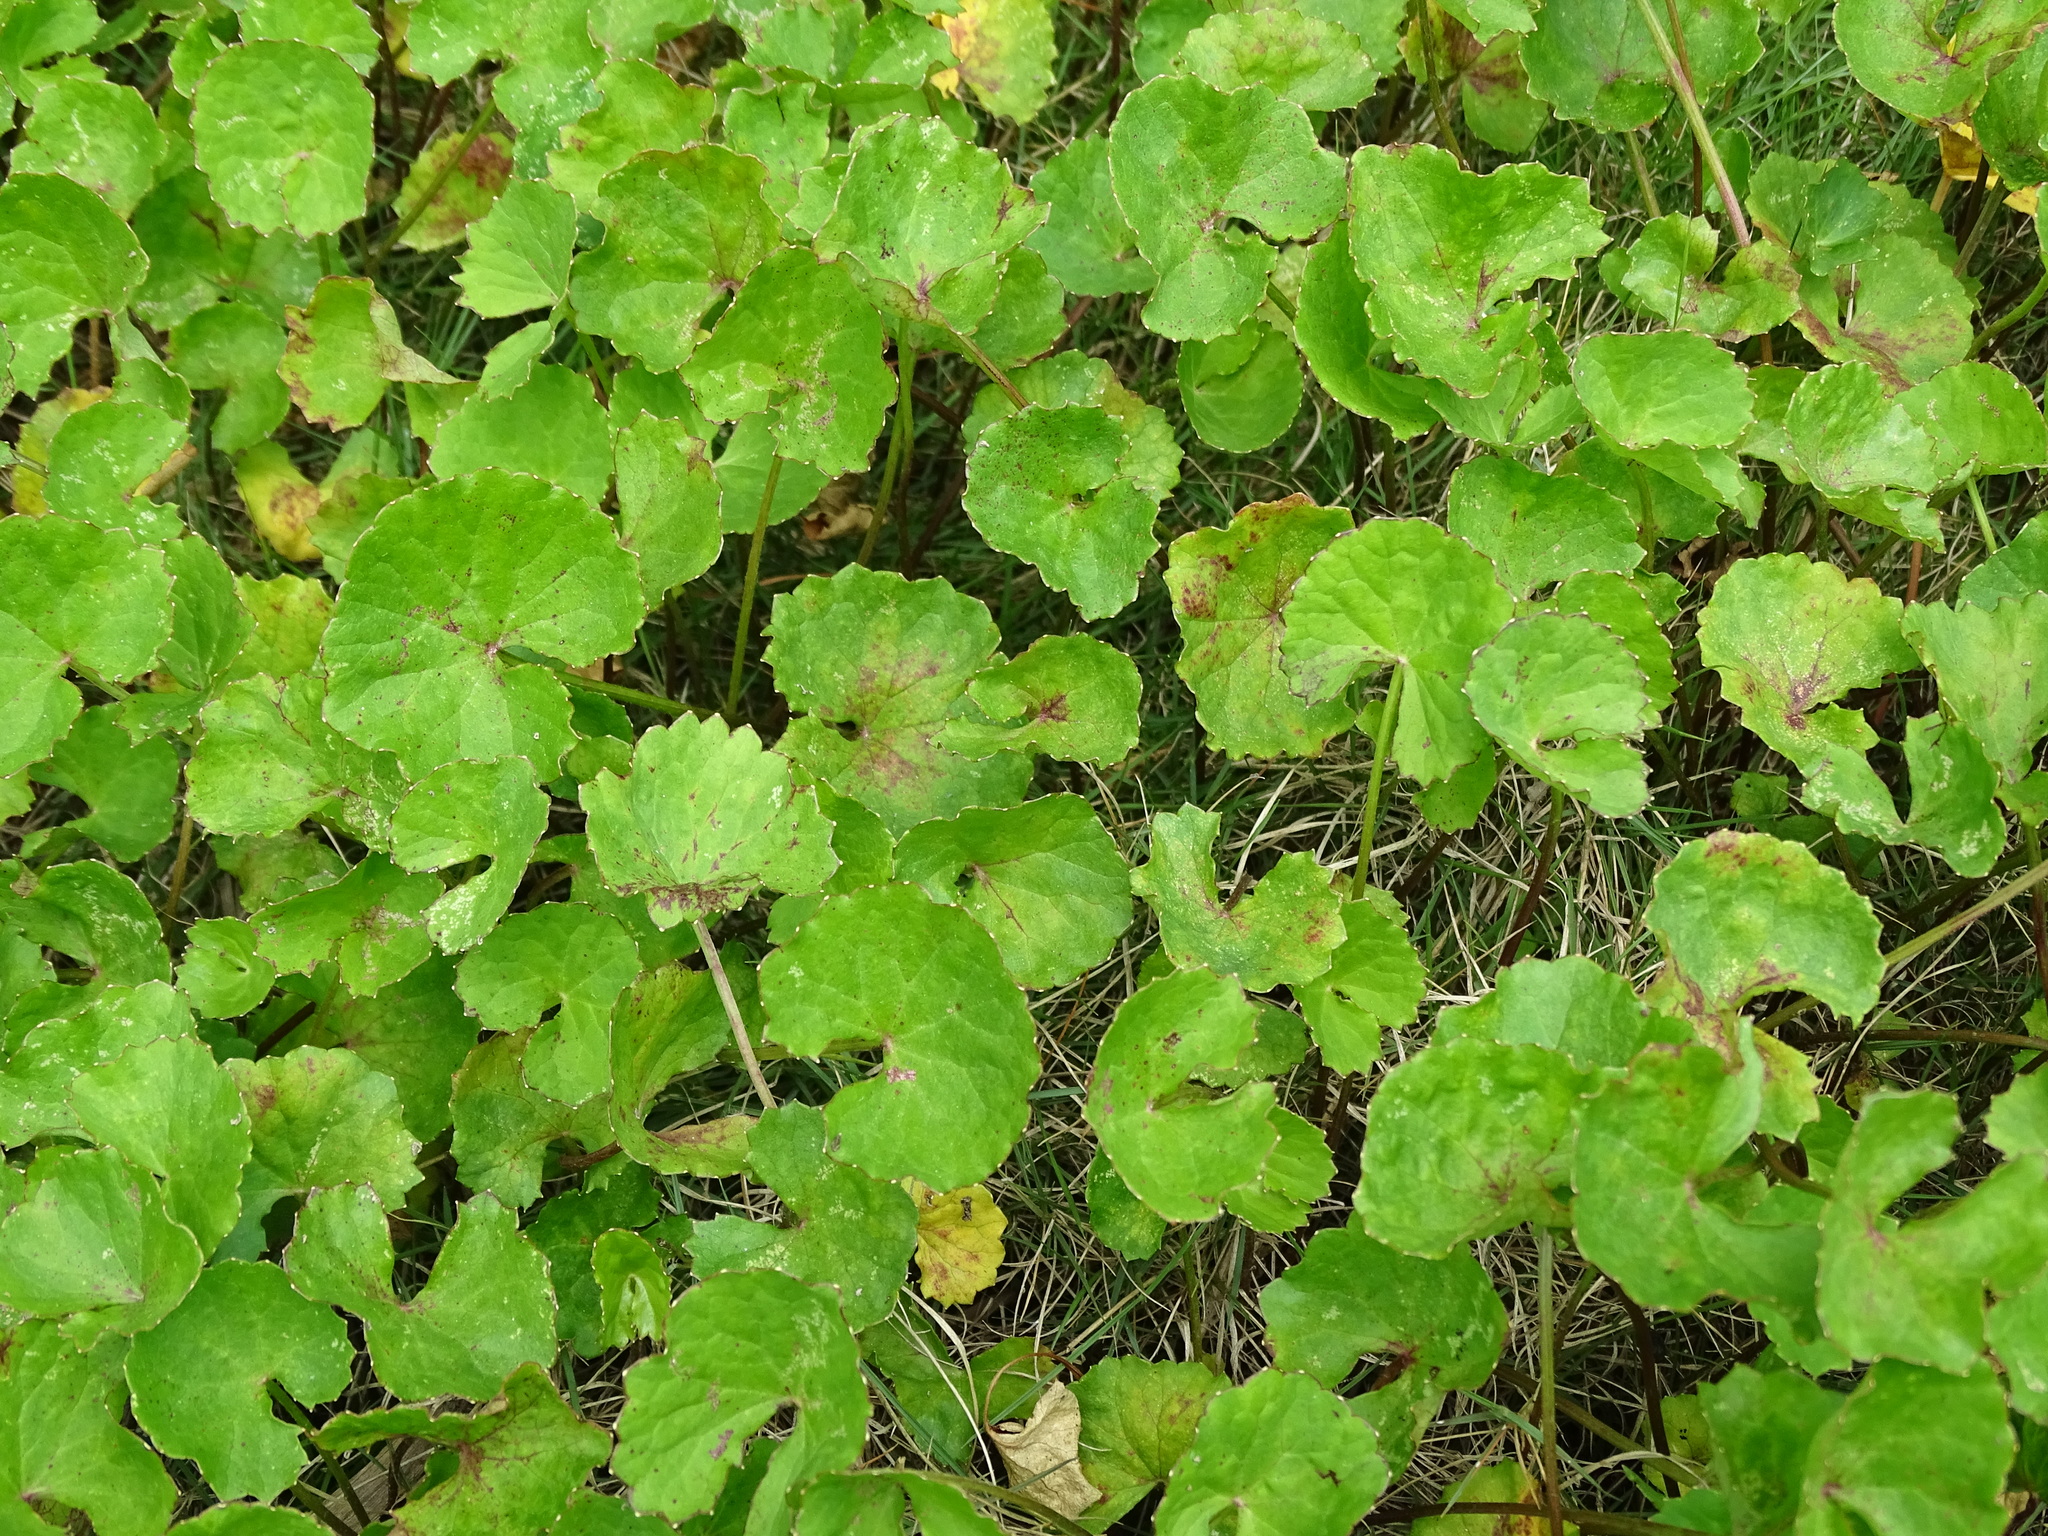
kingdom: Plantae
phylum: Tracheophyta
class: Magnoliopsida
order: Apiales
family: Apiaceae
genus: Centella
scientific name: Centella asiatica
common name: Spadeleaf
